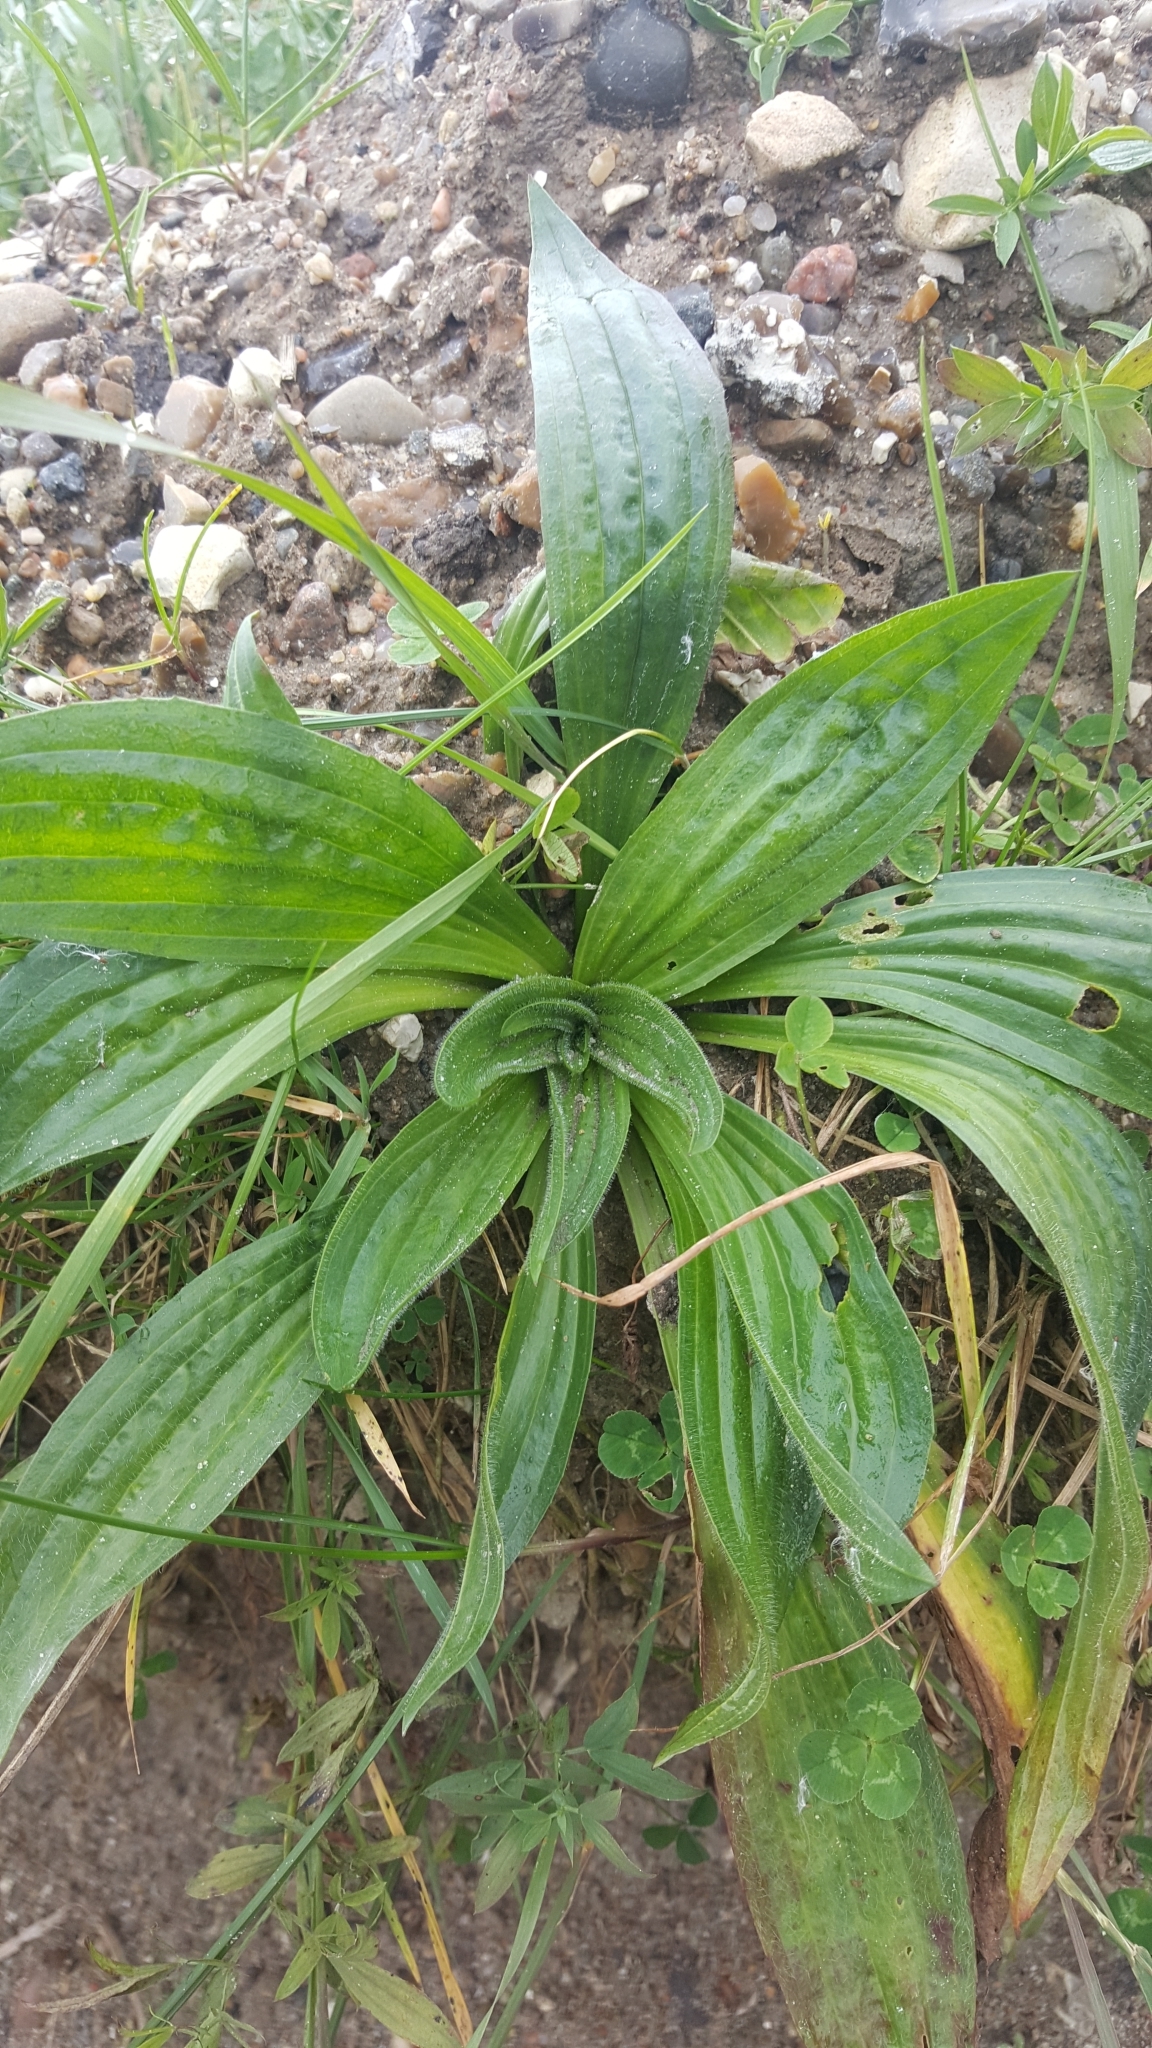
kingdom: Plantae
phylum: Tracheophyta
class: Magnoliopsida
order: Lamiales
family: Plantaginaceae
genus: Plantago
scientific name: Plantago lanceolata
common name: Ribwort plantain
